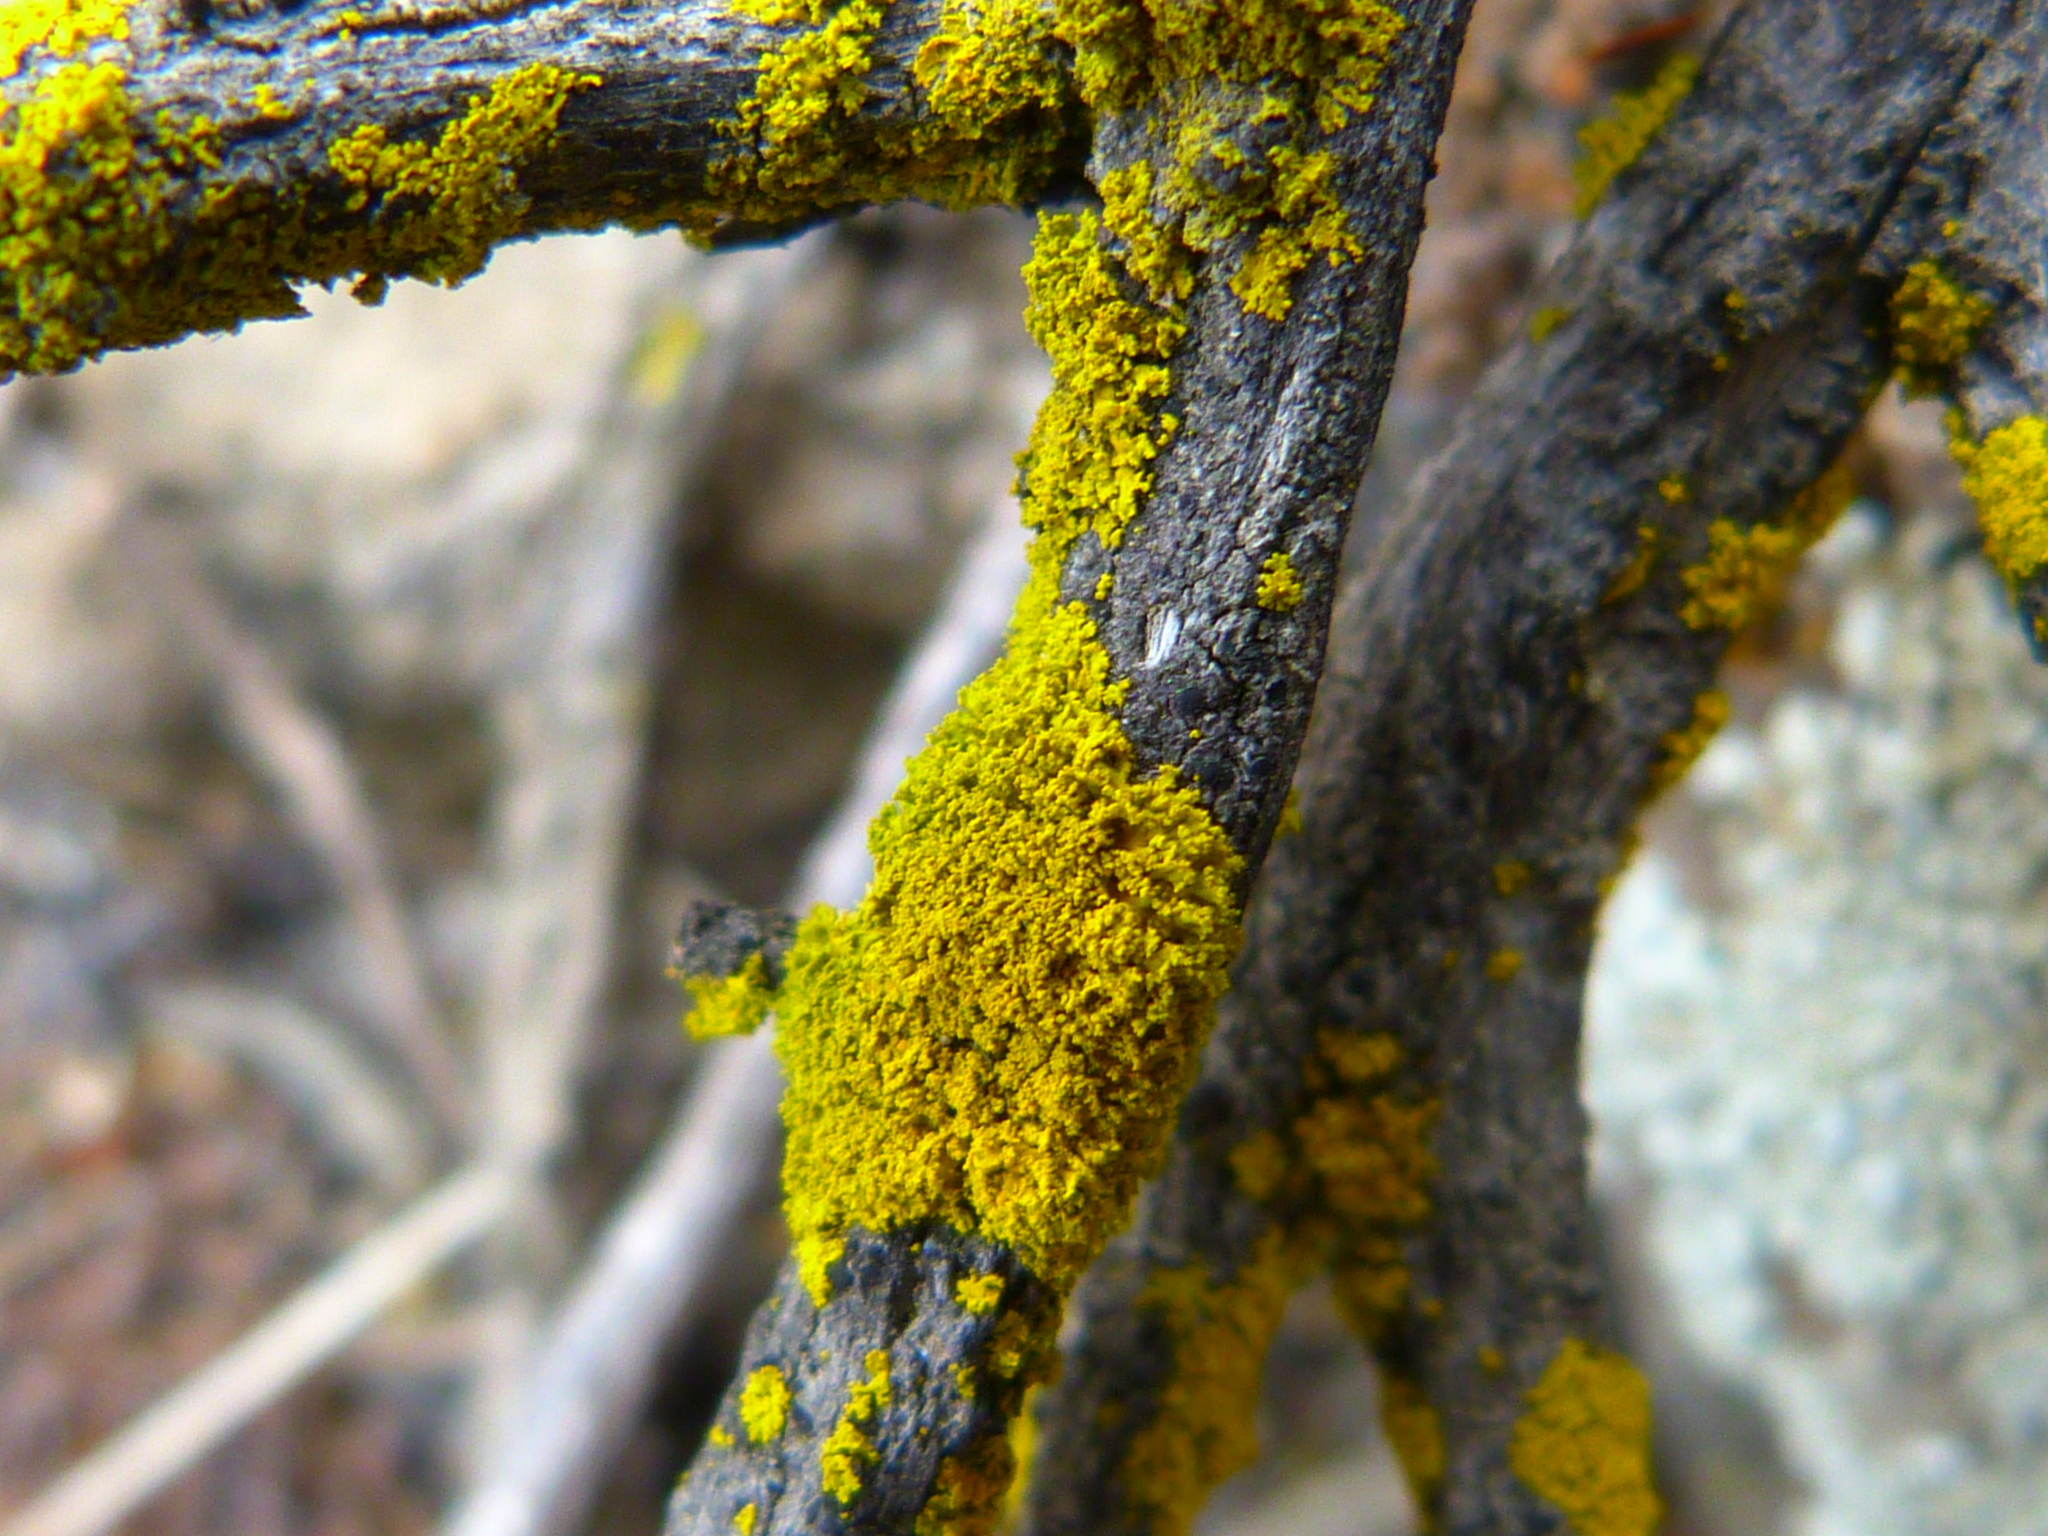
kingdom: Fungi
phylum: Ascomycota
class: Candelariomycetes
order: Candelariales
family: Candelariaceae
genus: Candelaria
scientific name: Candelaria concolor
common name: Candleflame lichen
